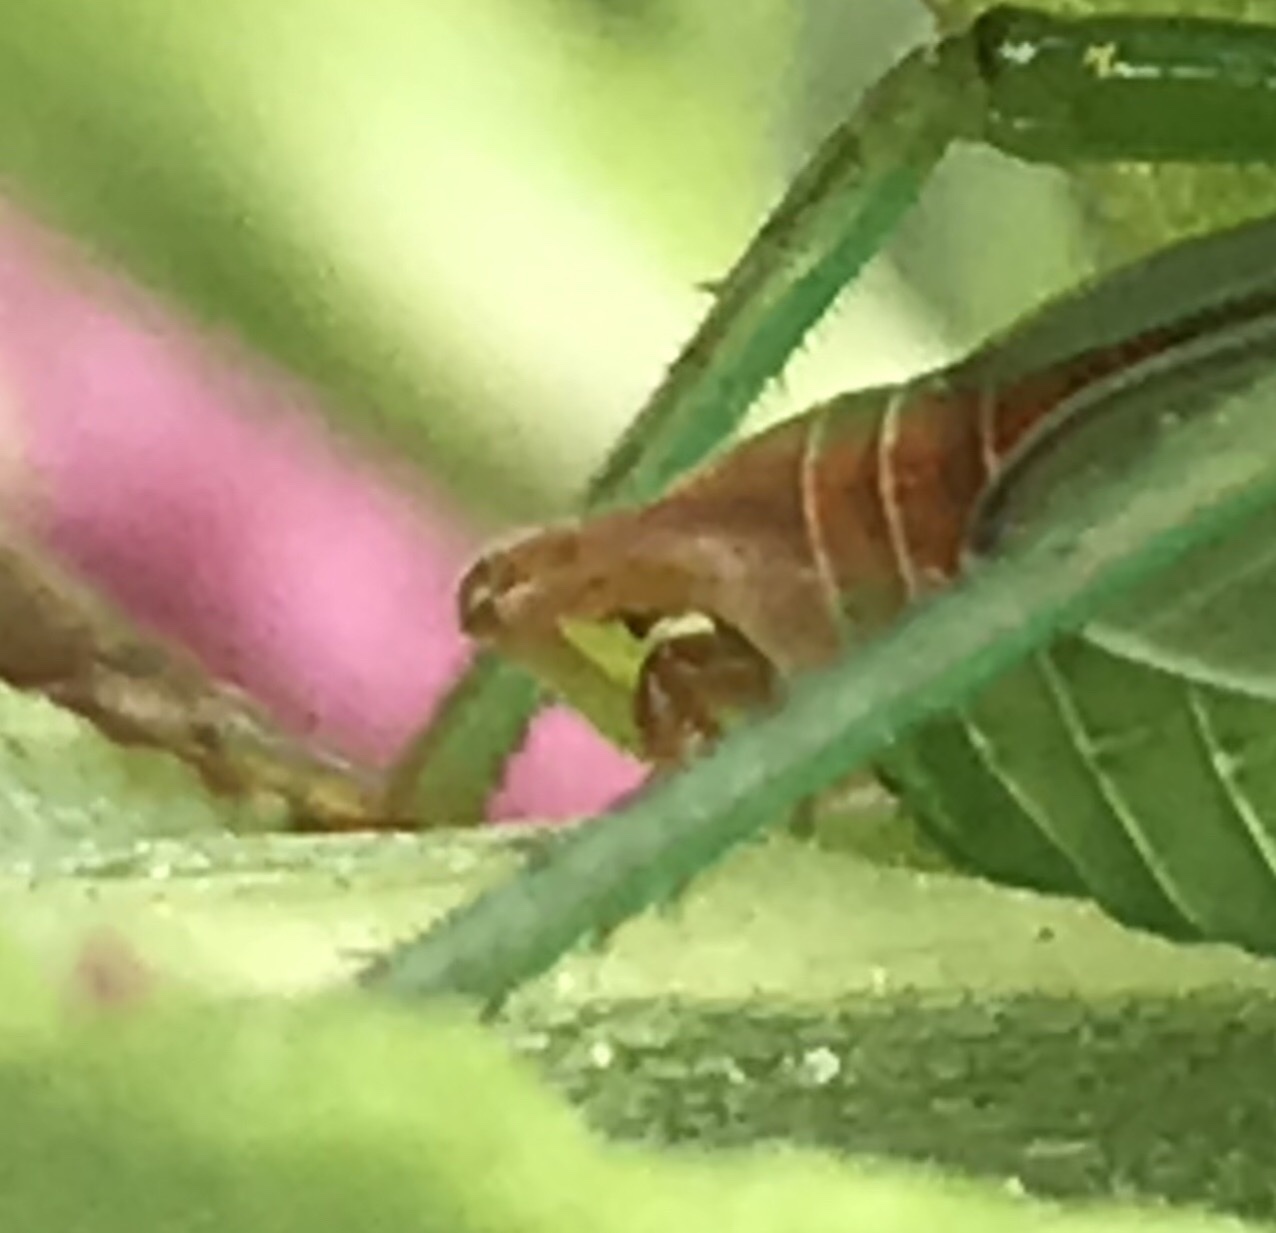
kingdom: Animalia
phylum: Arthropoda
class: Insecta
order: Orthoptera
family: Tettigoniidae
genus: Scudderia
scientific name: Scudderia
